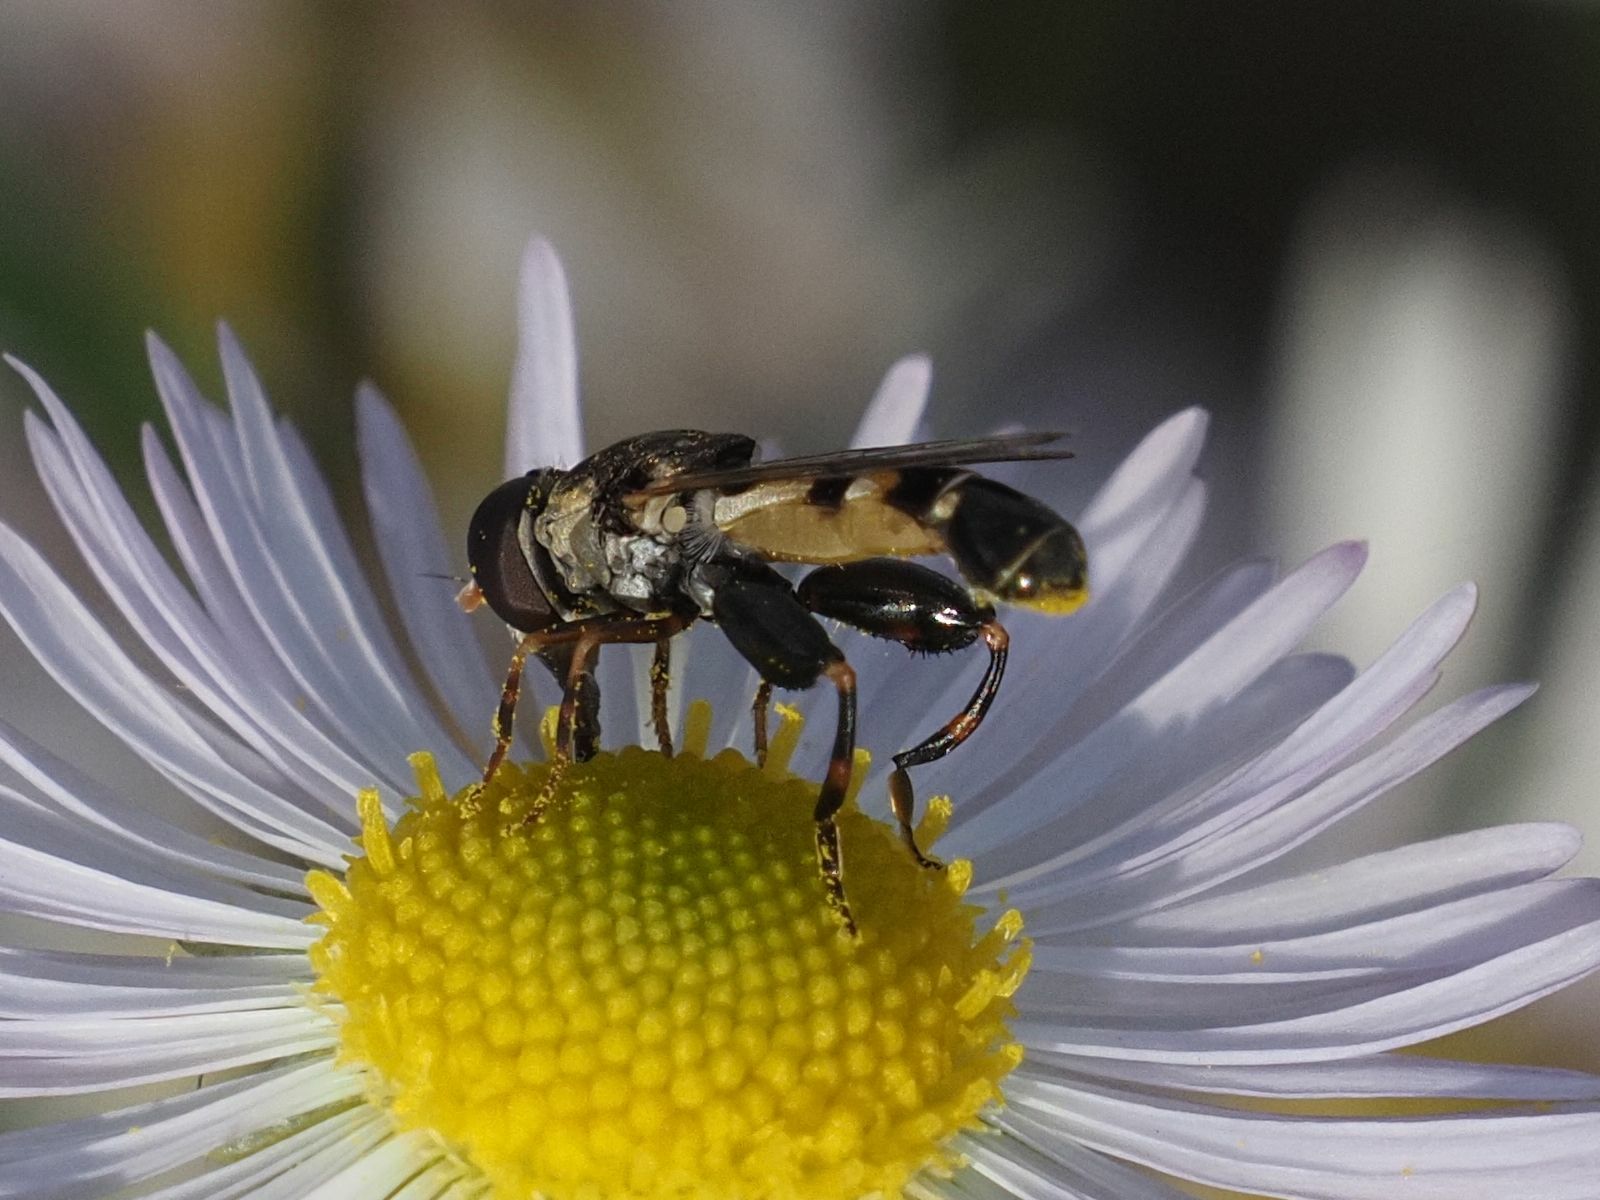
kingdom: Animalia
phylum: Arthropoda
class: Insecta
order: Diptera
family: Syrphidae
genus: Syritta
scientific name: Syritta pipiens
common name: Hover fly
